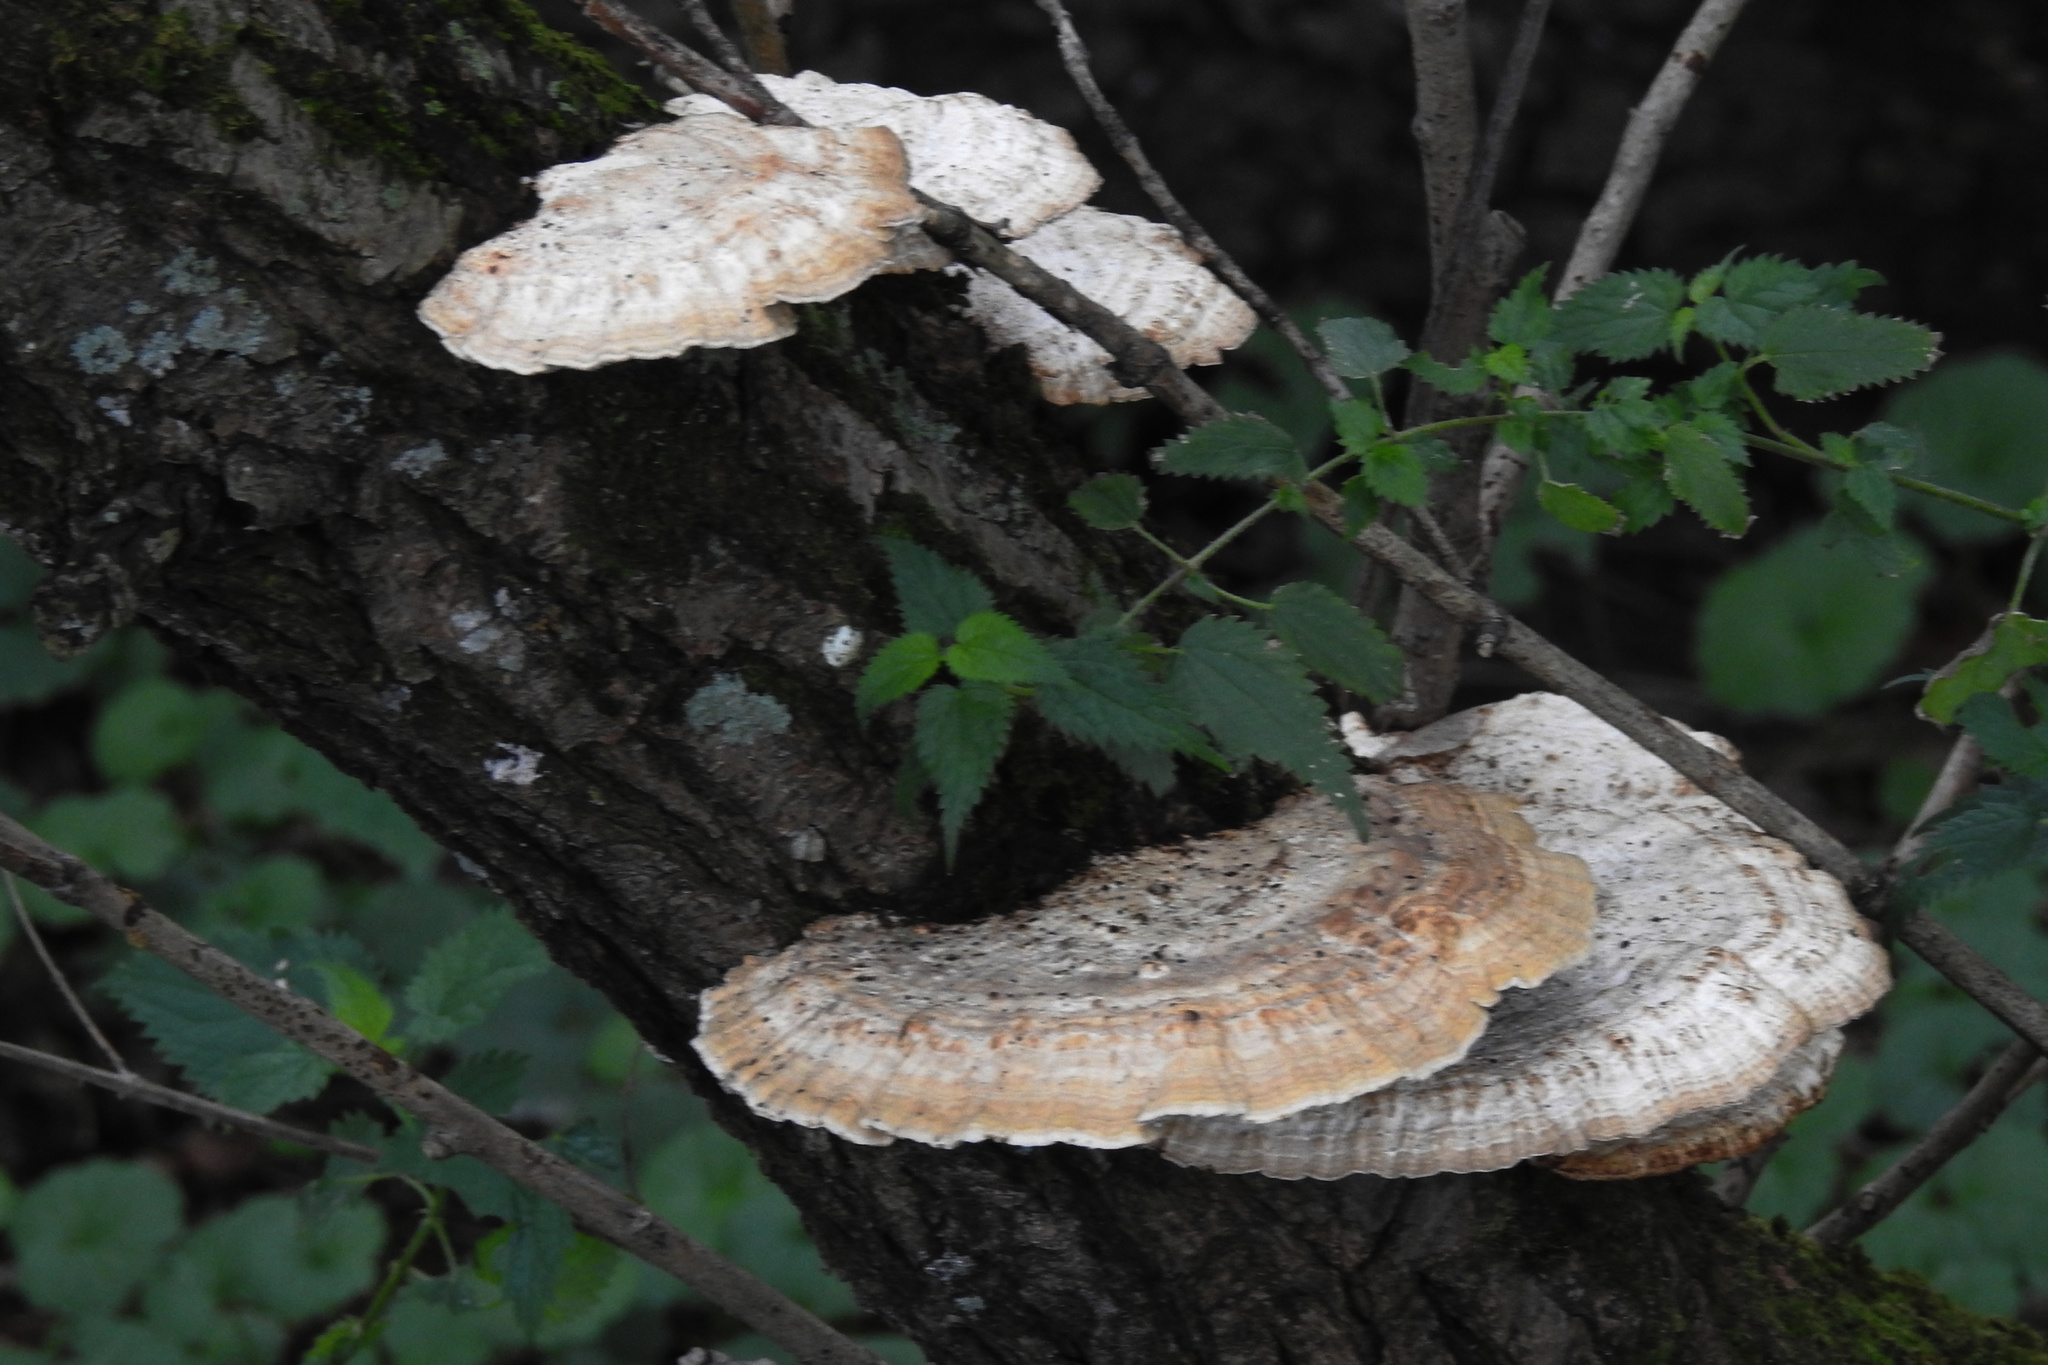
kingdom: Fungi
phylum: Basidiomycota
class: Agaricomycetes
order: Polyporales
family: Polyporaceae
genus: Daedaleopsis
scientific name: Daedaleopsis confragosa
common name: Blushing bracket
